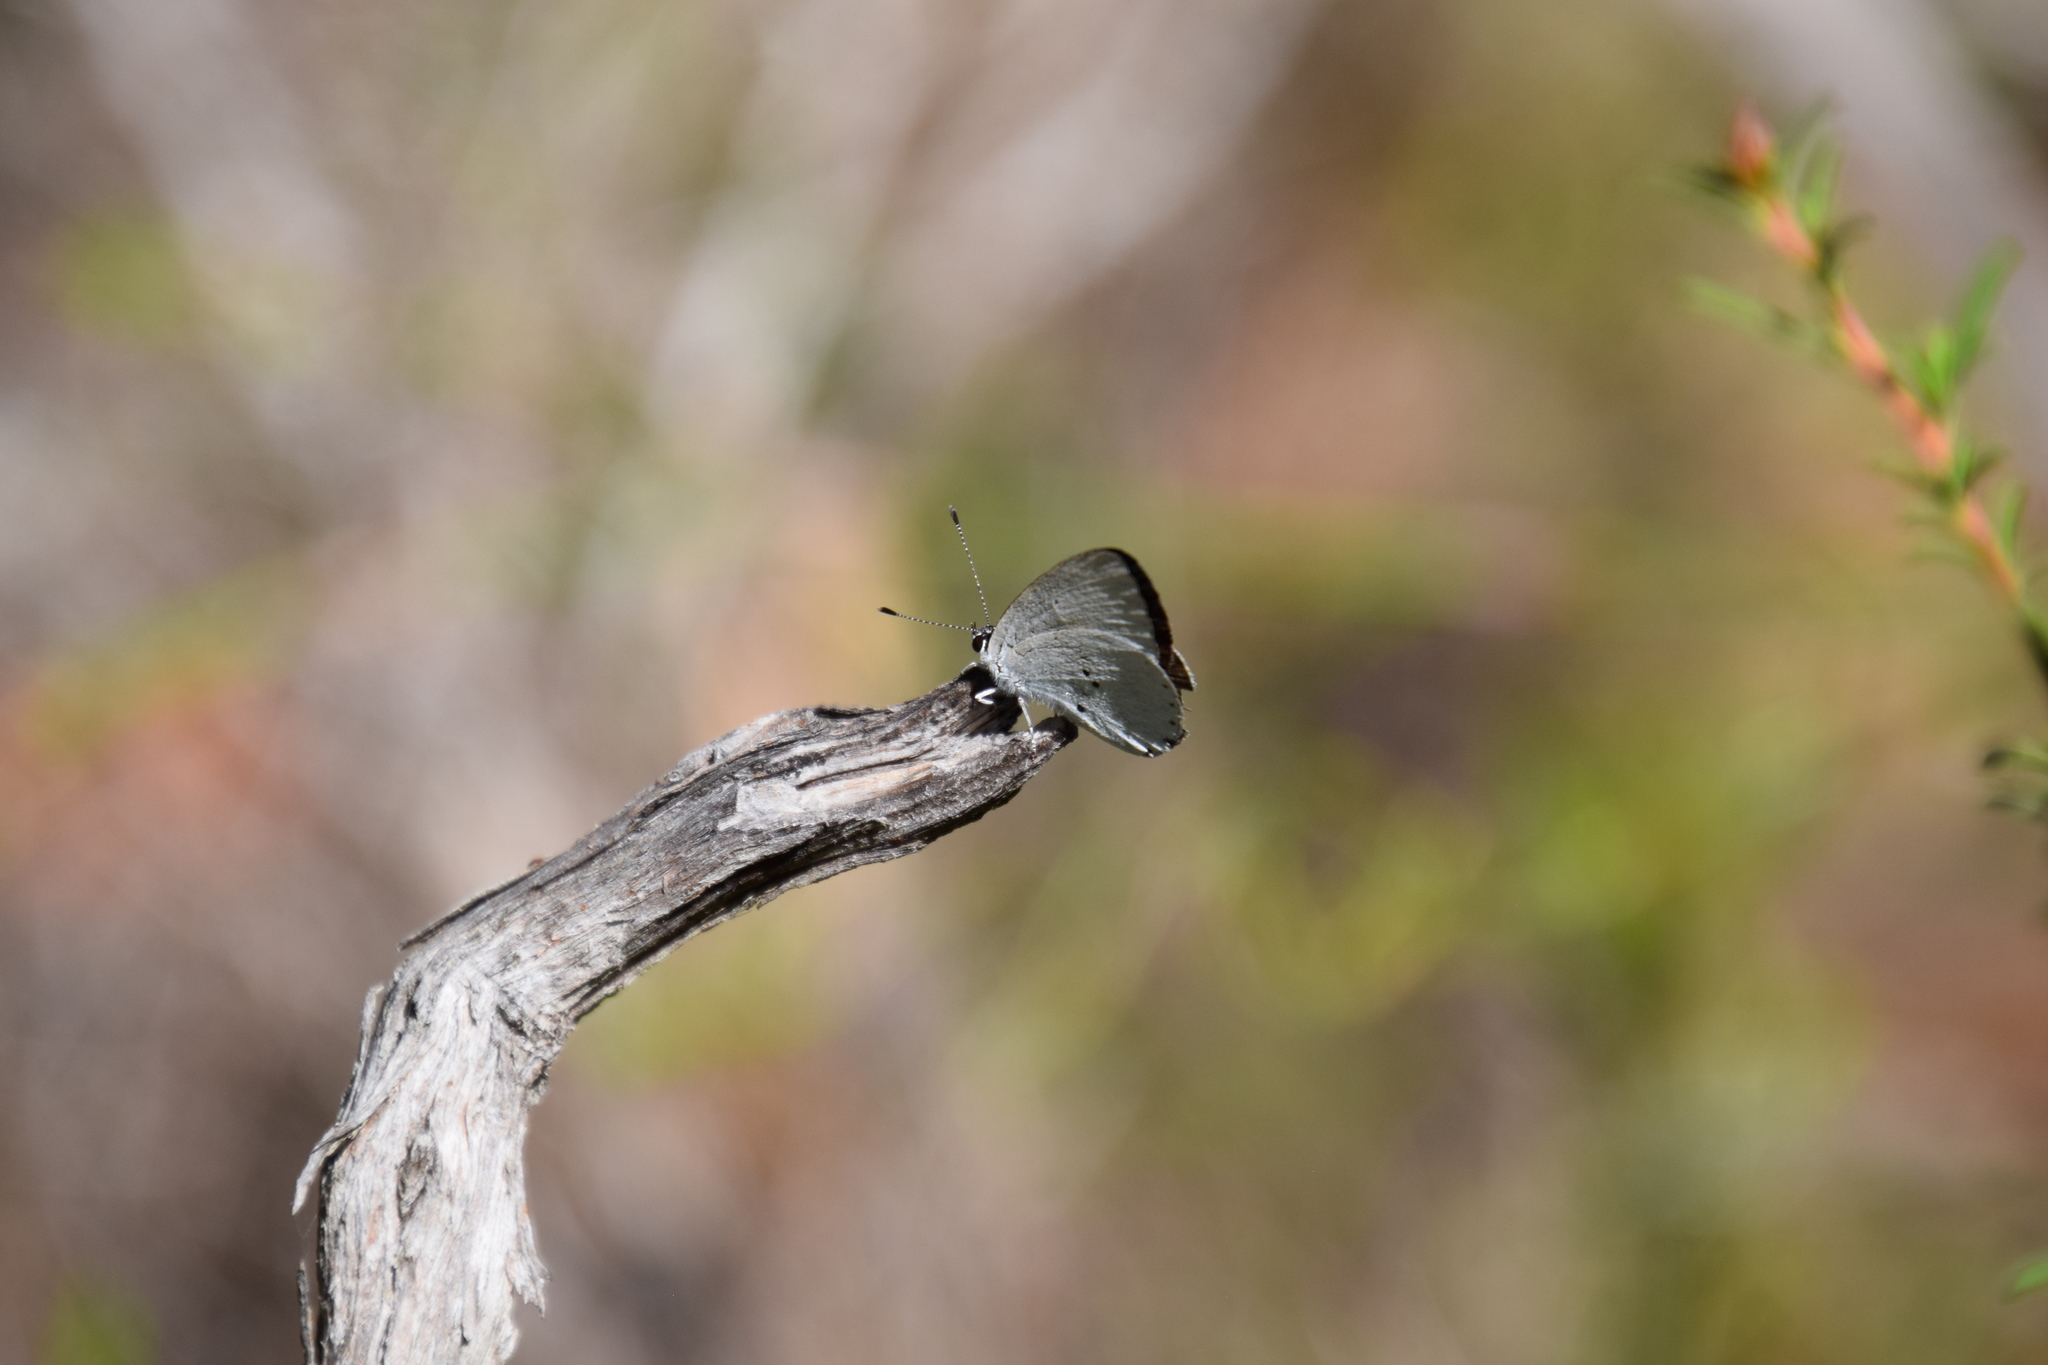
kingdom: Animalia
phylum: Arthropoda
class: Insecta
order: Lepidoptera
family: Lycaenidae
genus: Candalides
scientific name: Candalides xanthospilos
